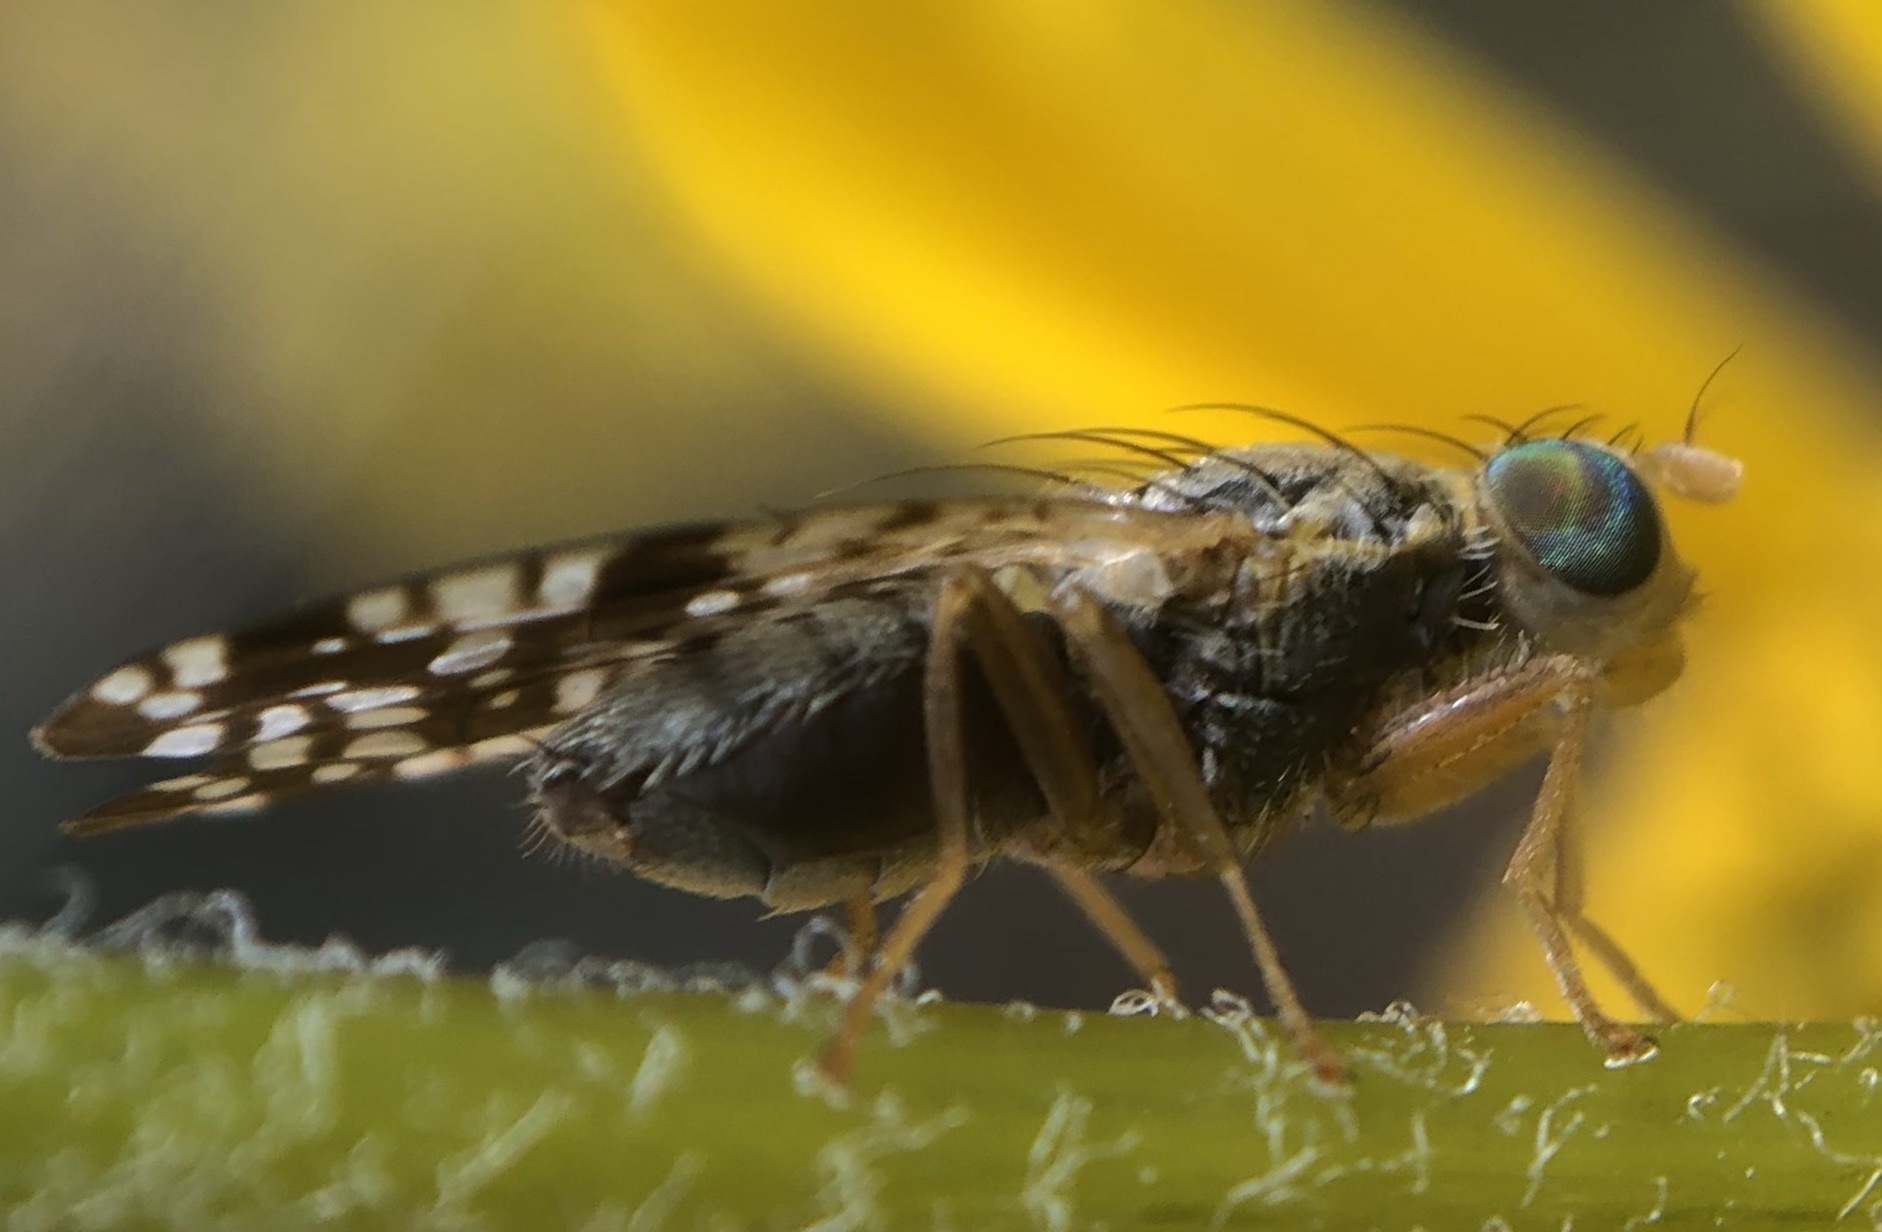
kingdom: Animalia
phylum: Arthropoda
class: Insecta
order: Diptera
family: Tephritidae
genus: Neotephritis
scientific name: Neotephritis finalis
